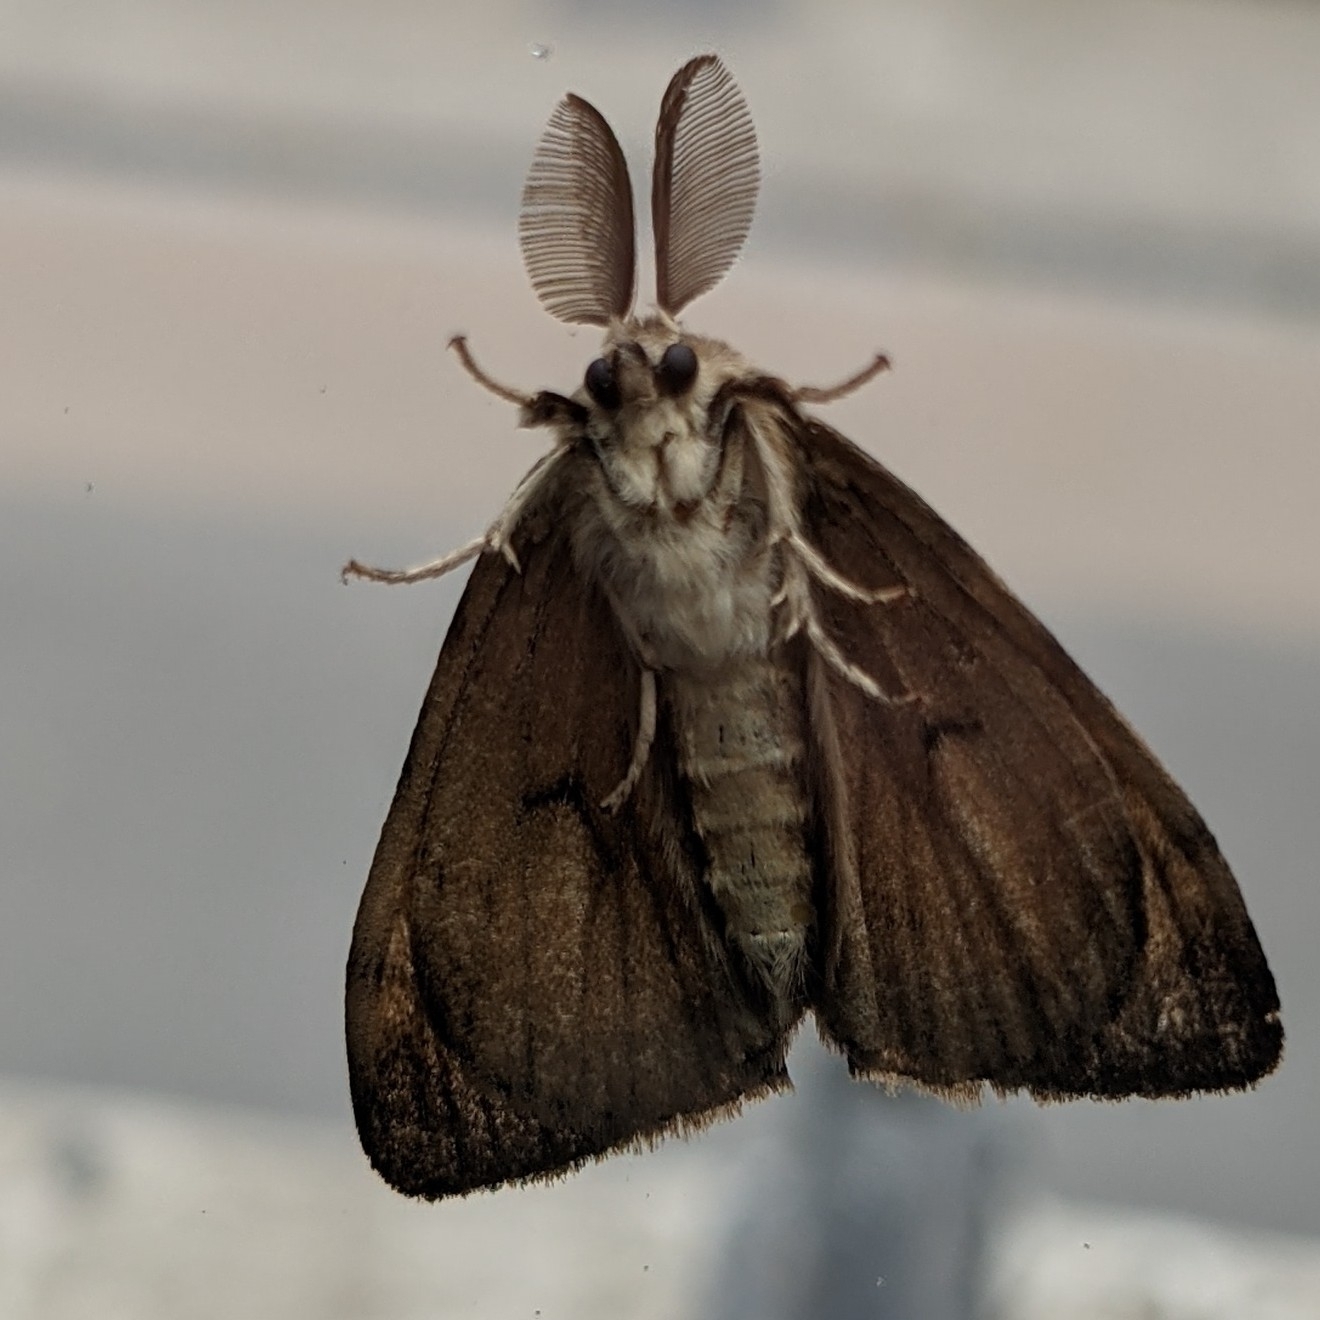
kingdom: Animalia
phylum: Arthropoda
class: Insecta
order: Lepidoptera
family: Erebidae
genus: Lymantria
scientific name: Lymantria dispar
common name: Gypsy moth
